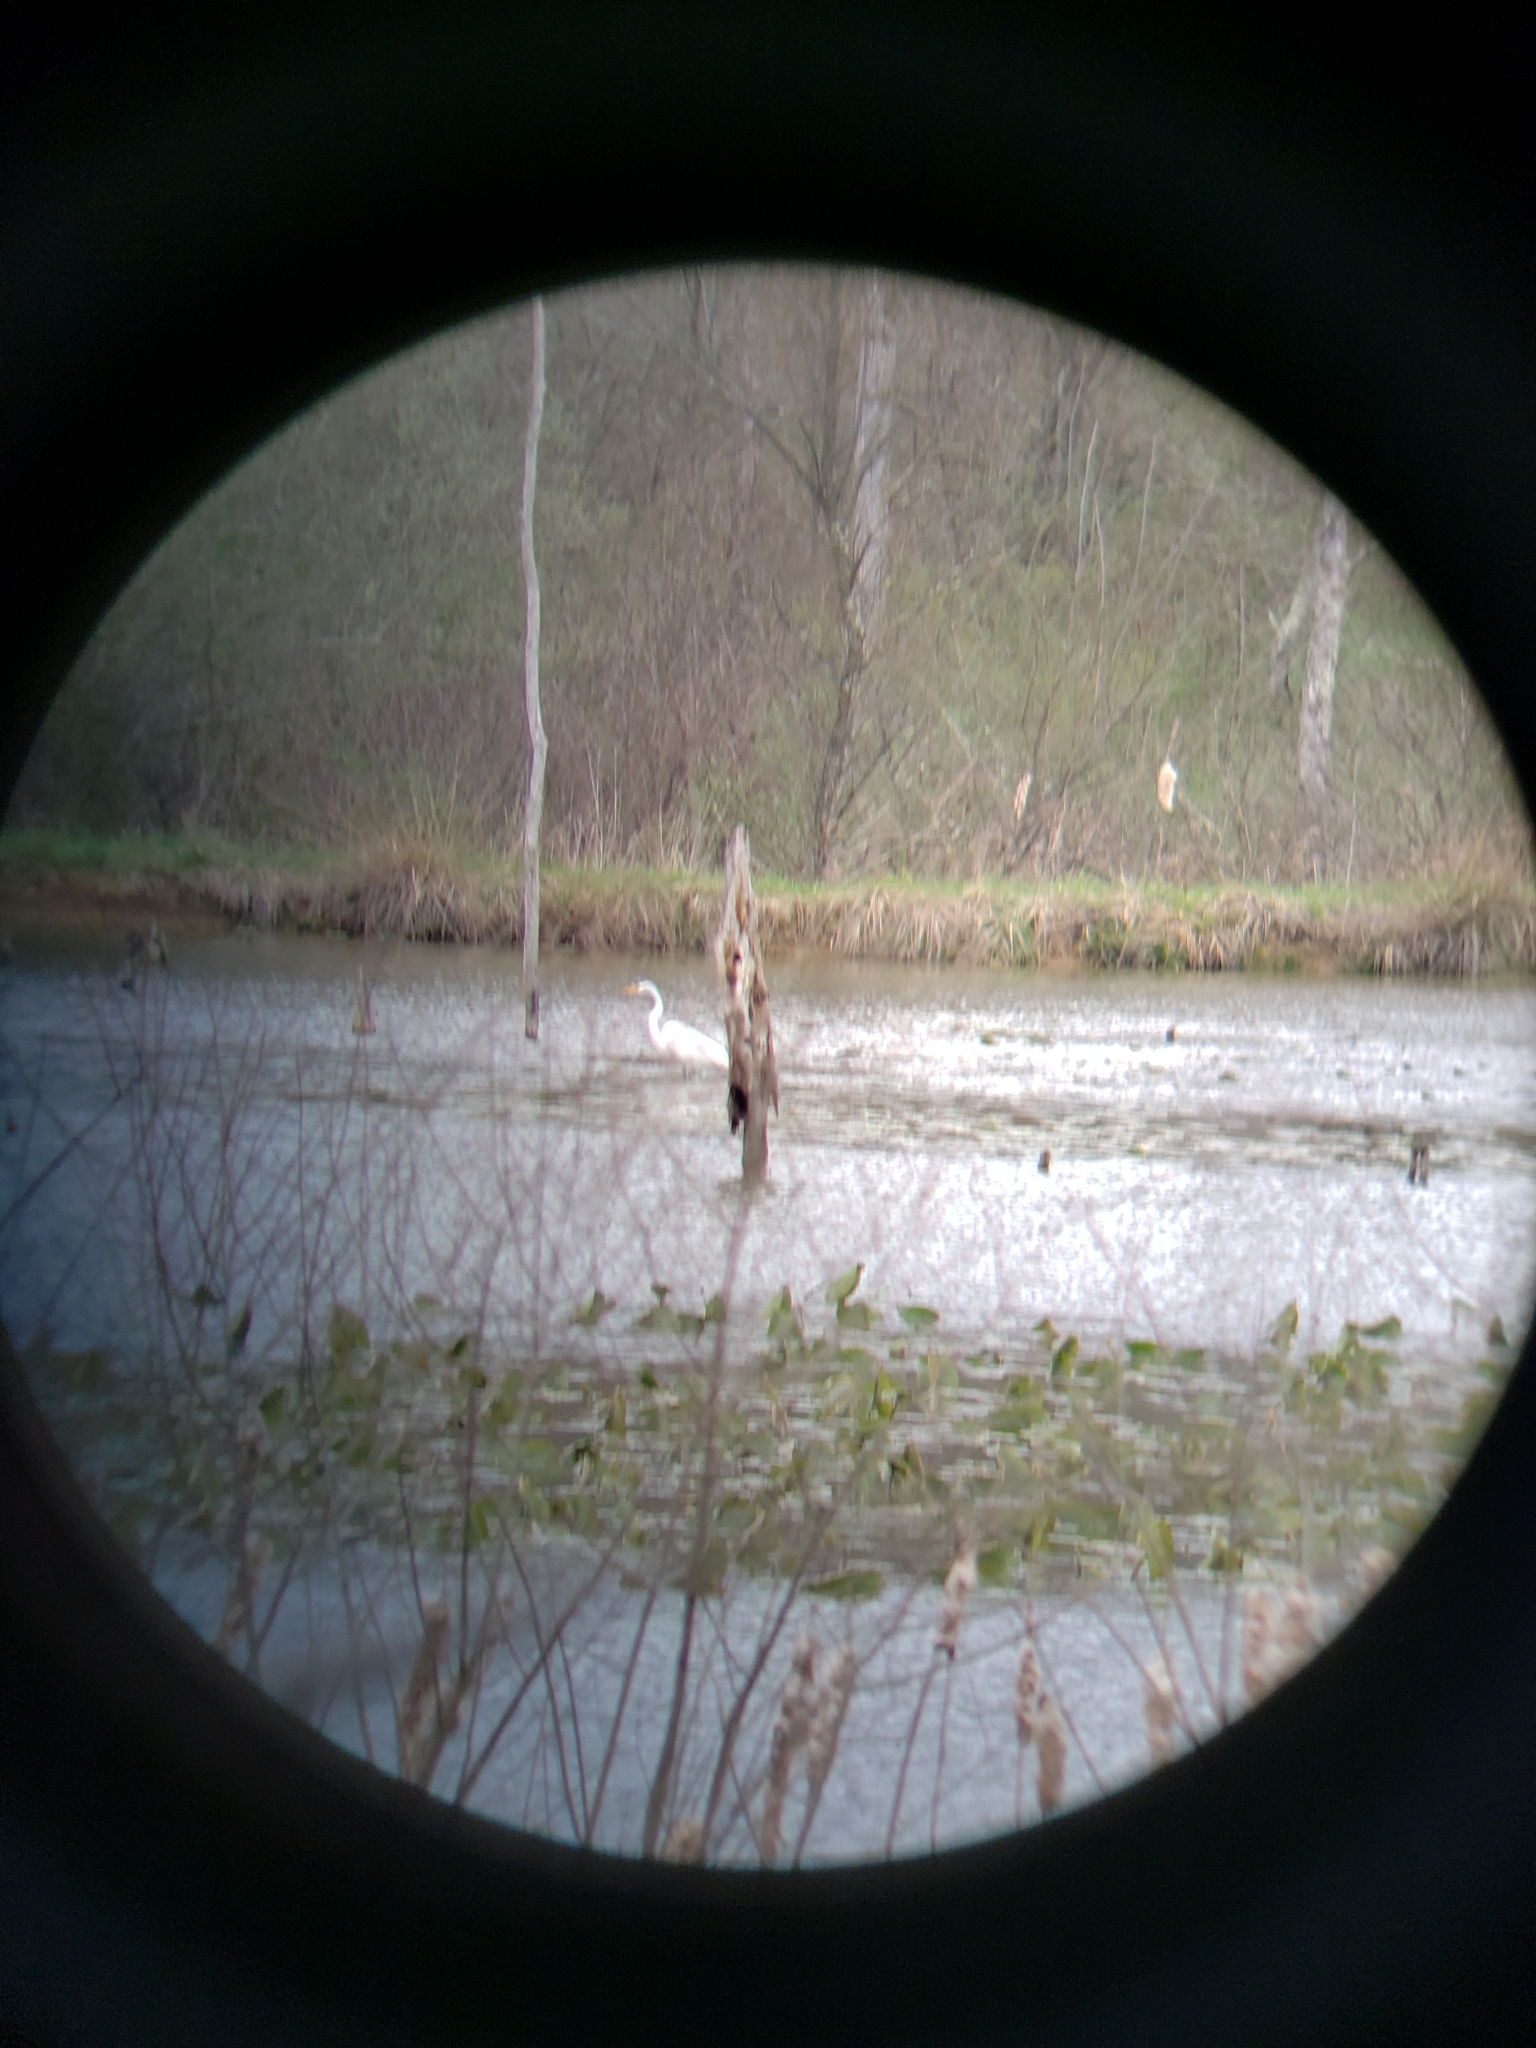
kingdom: Animalia
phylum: Chordata
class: Aves
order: Pelecaniformes
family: Ardeidae
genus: Ardea
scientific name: Ardea alba
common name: Great egret
